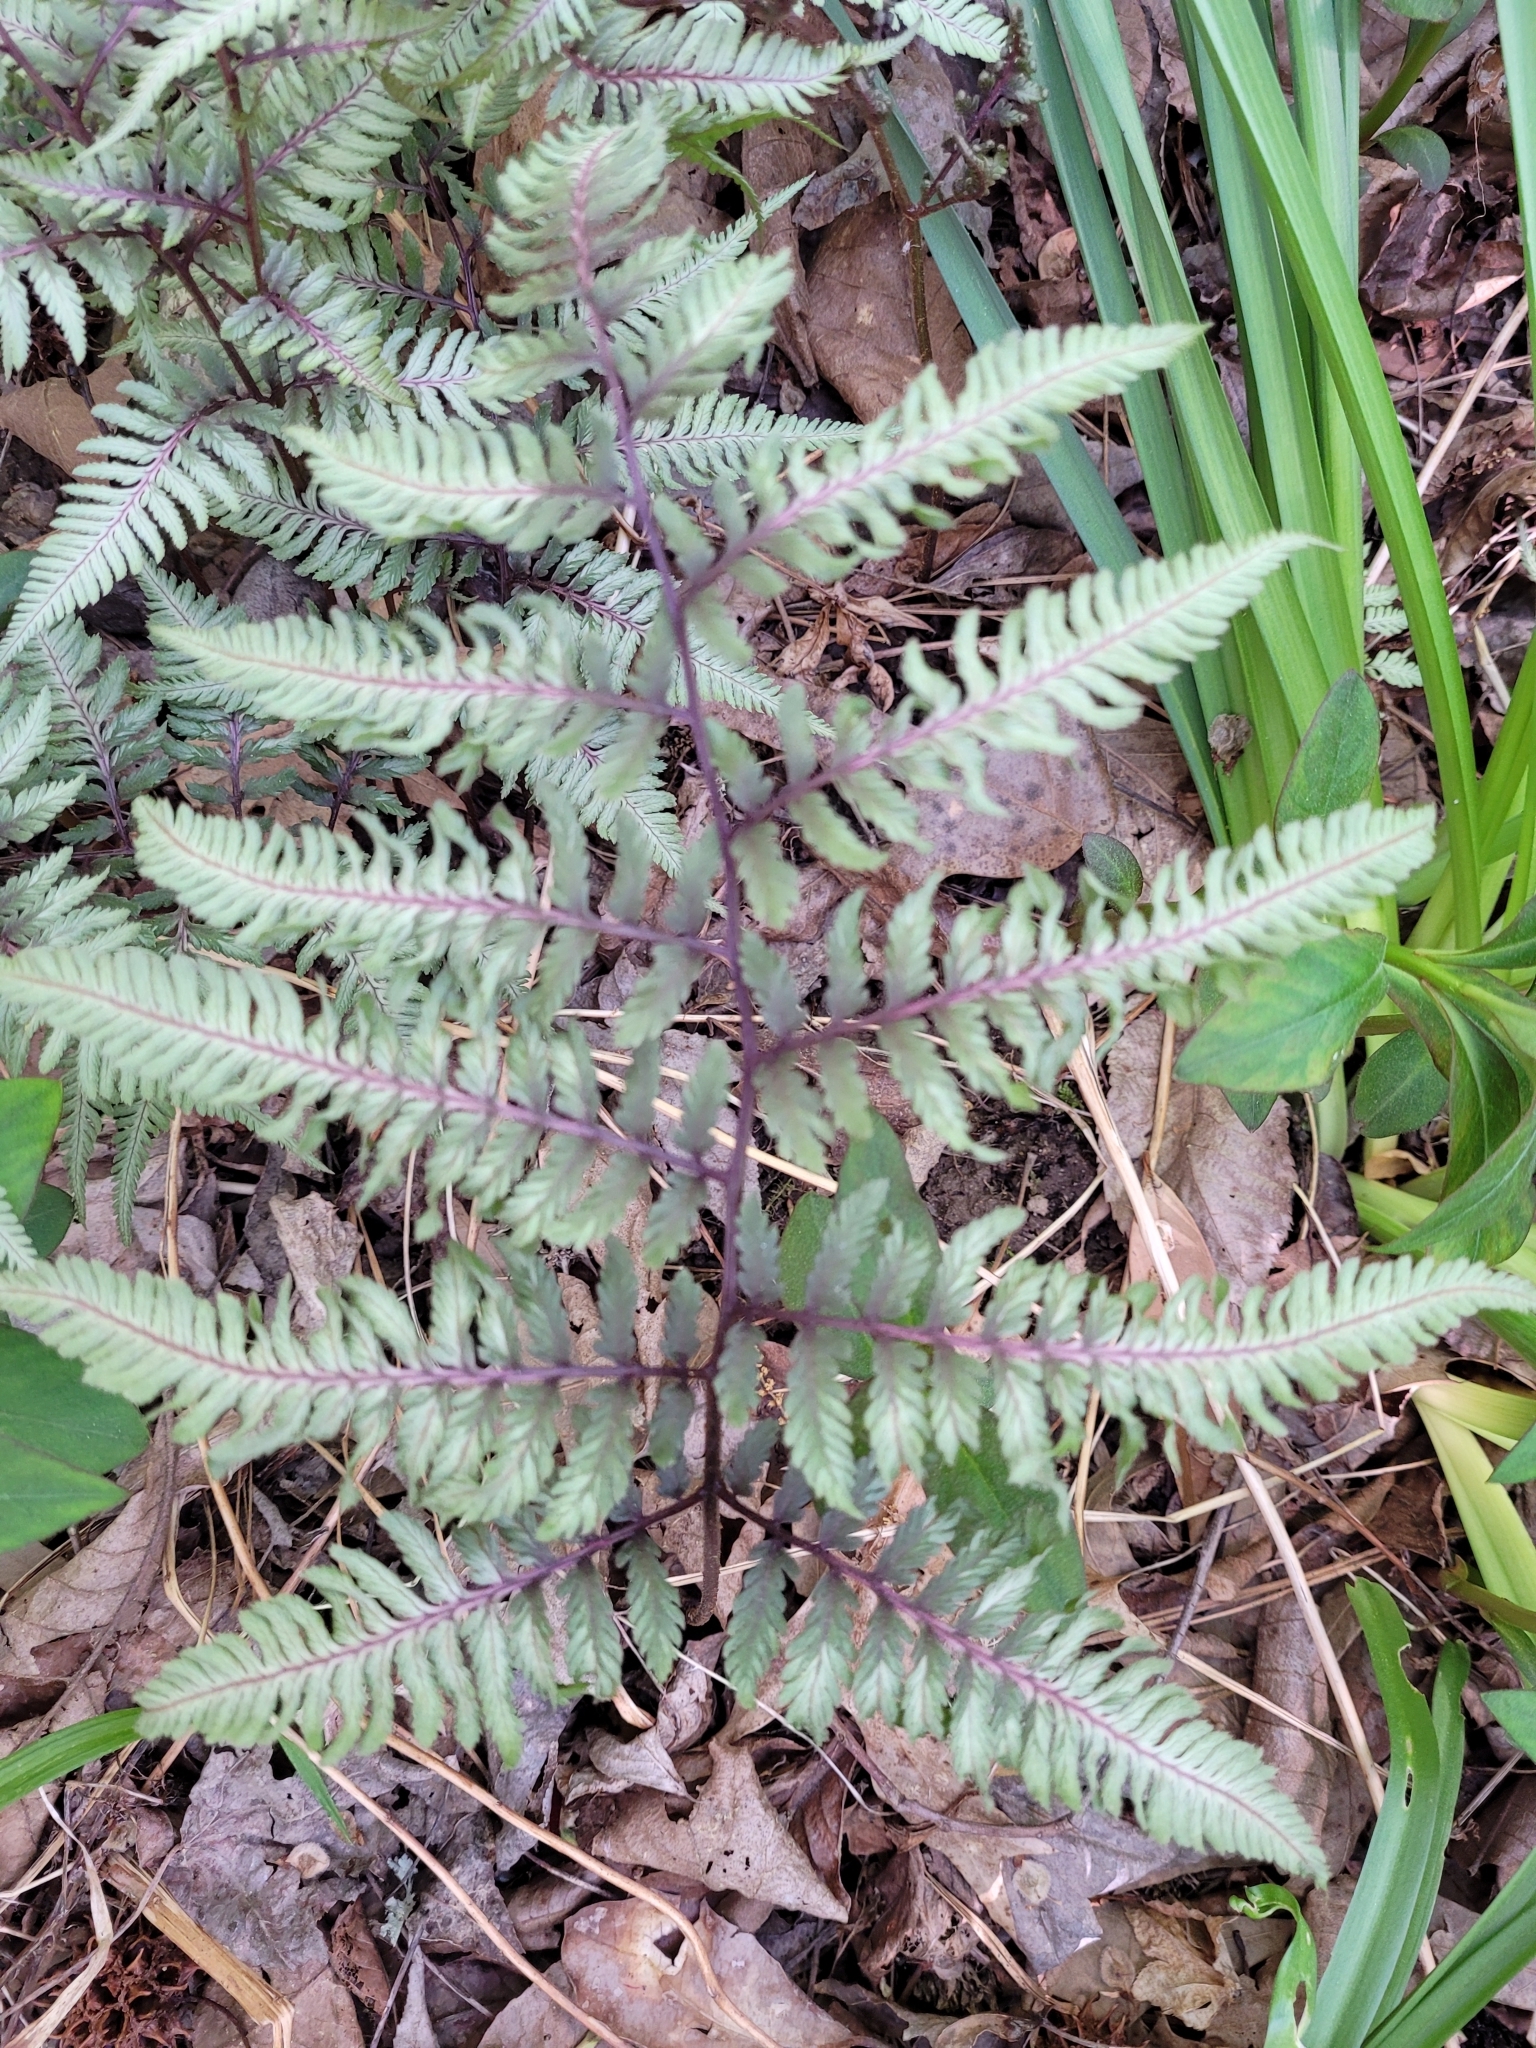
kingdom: Plantae
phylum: Tracheophyta
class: Polypodiopsida
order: Polypodiales
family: Athyriaceae
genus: Anisocampium
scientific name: Anisocampium niponicum
